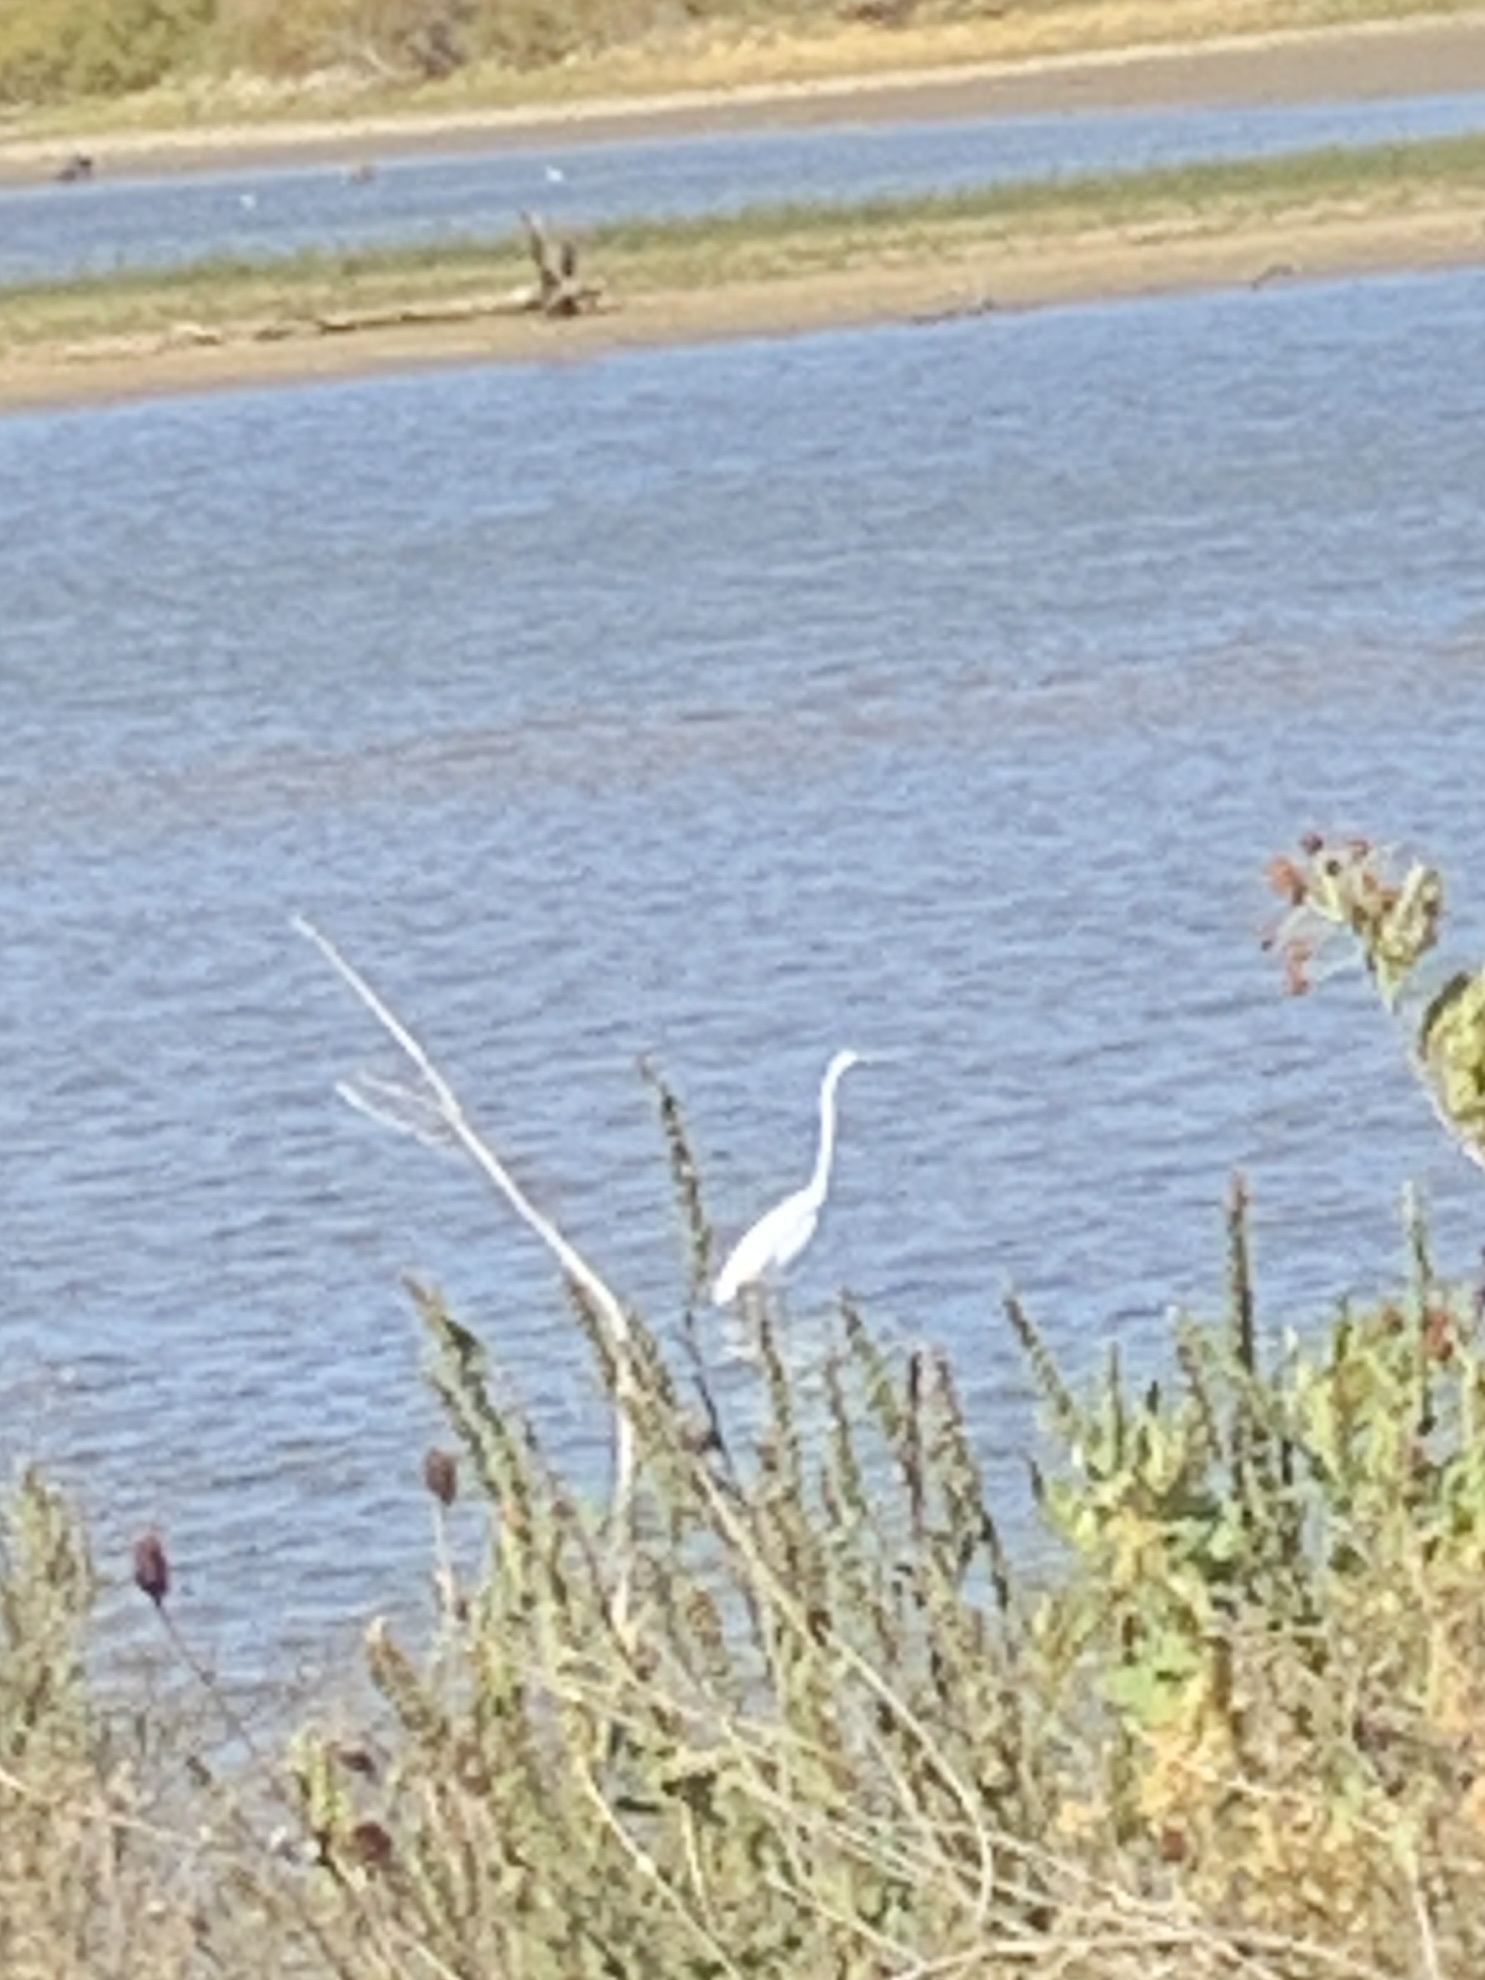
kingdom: Animalia
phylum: Chordata
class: Aves
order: Pelecaniformes
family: Ardeidae
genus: Ardea
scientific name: Ardea alba
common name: Great egret
